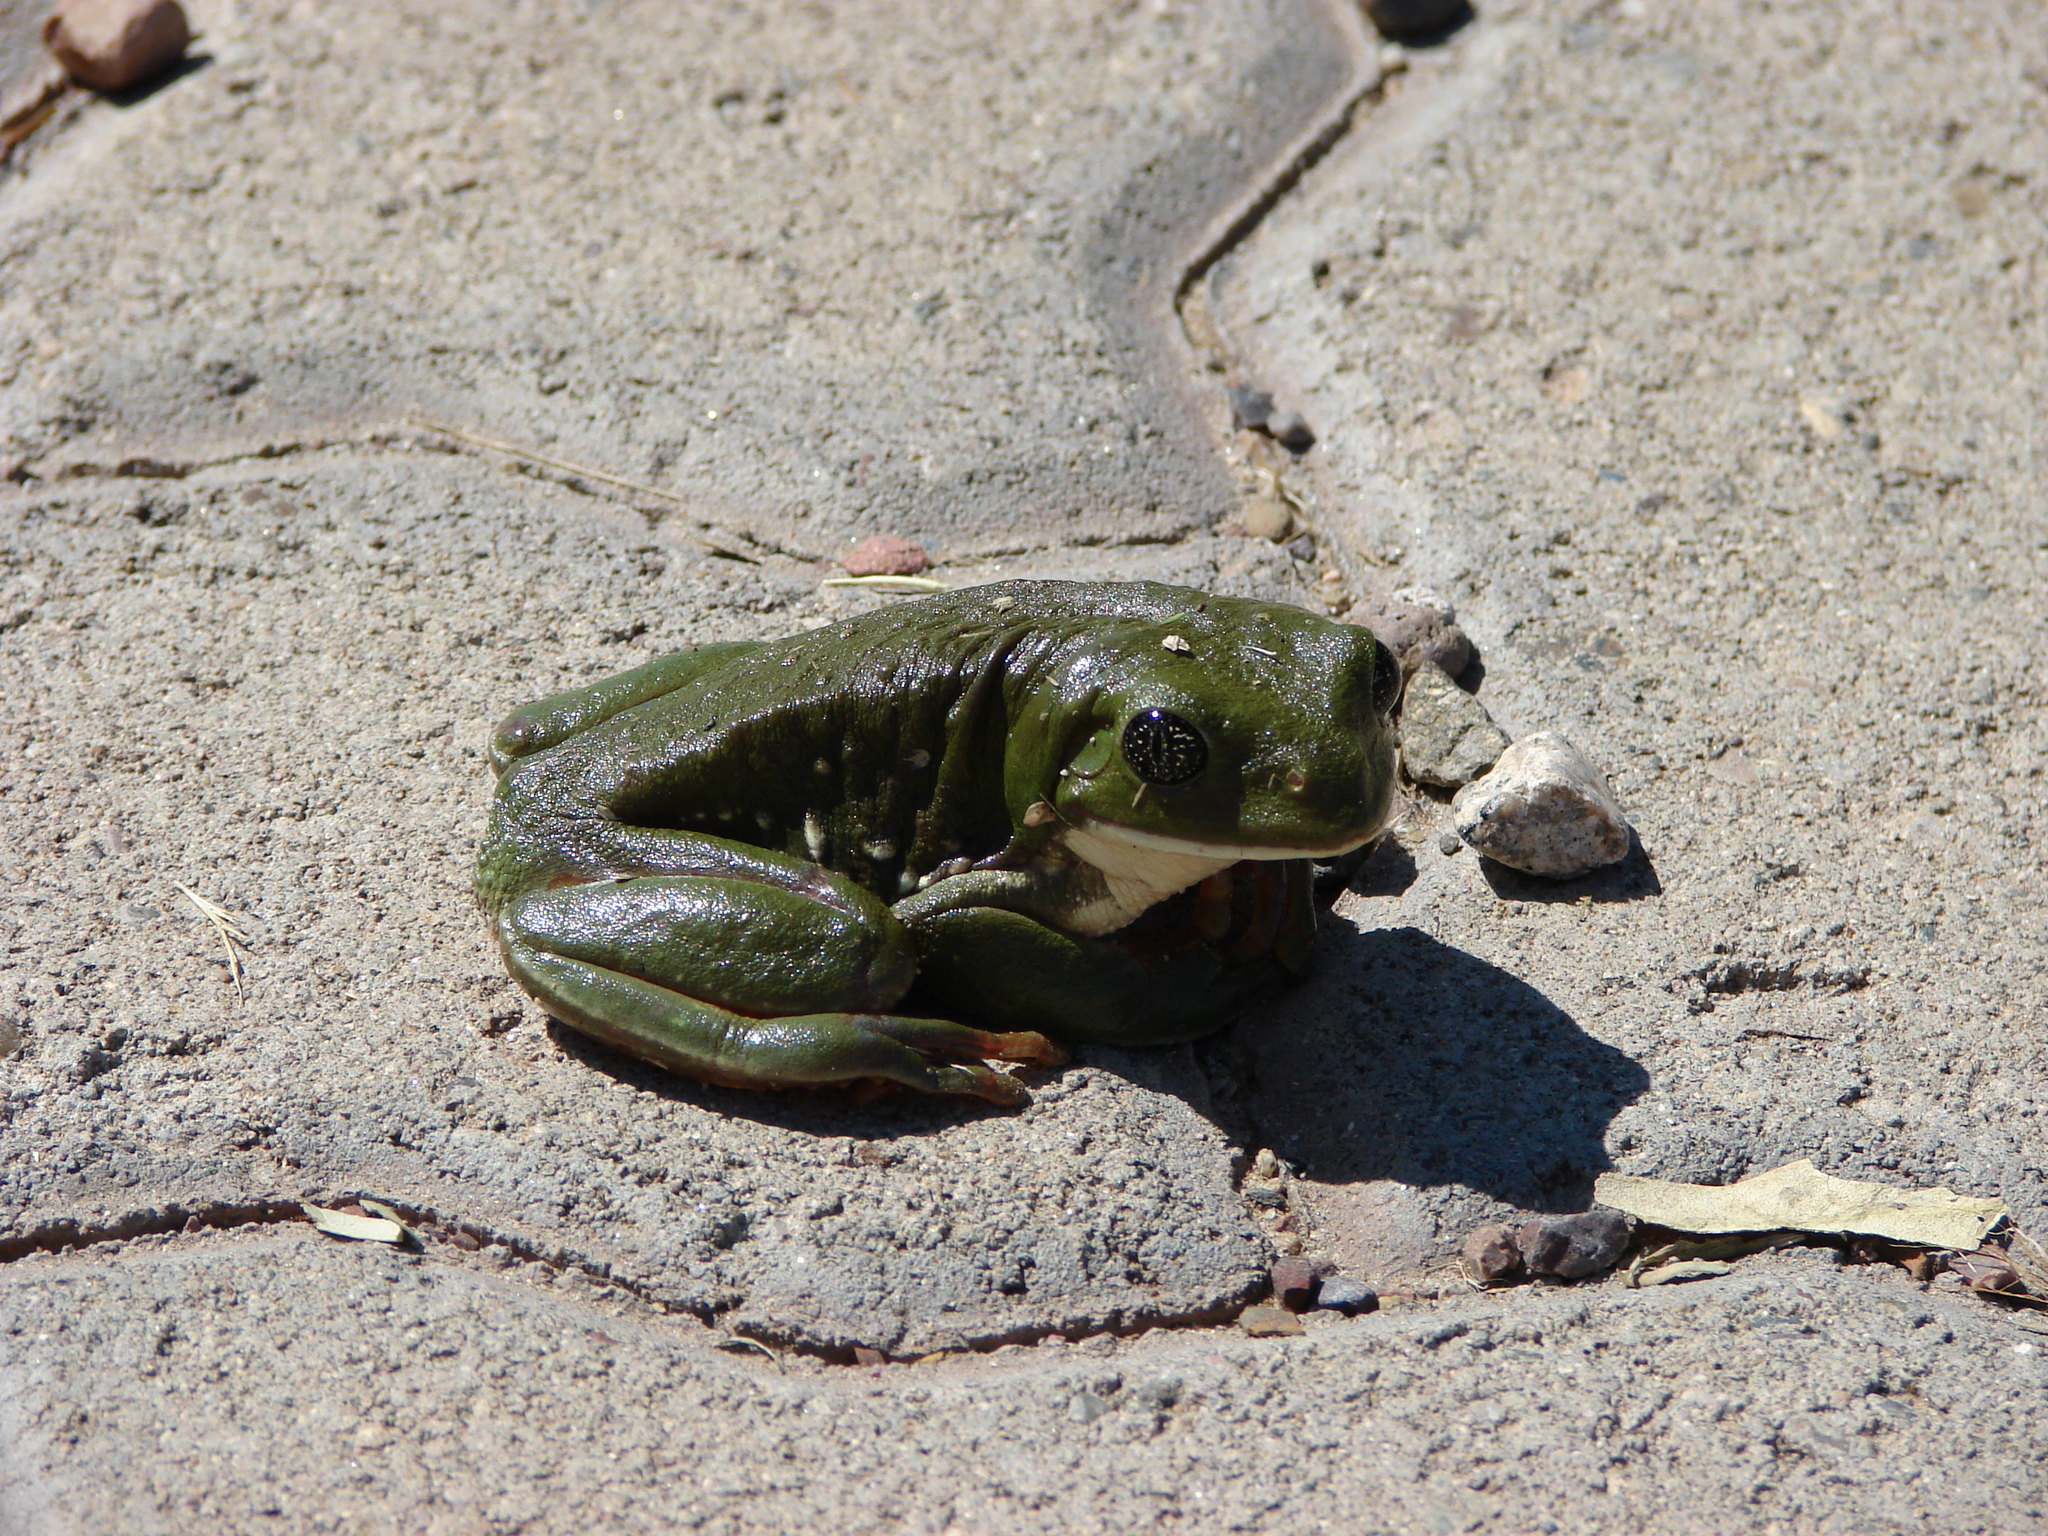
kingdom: Animalia
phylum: Chordata
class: Amphibia
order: Anura
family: Phyllomedusidae
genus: Agalychnis
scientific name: Agalychnis dacnicolor
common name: Mexican giant tree frog
